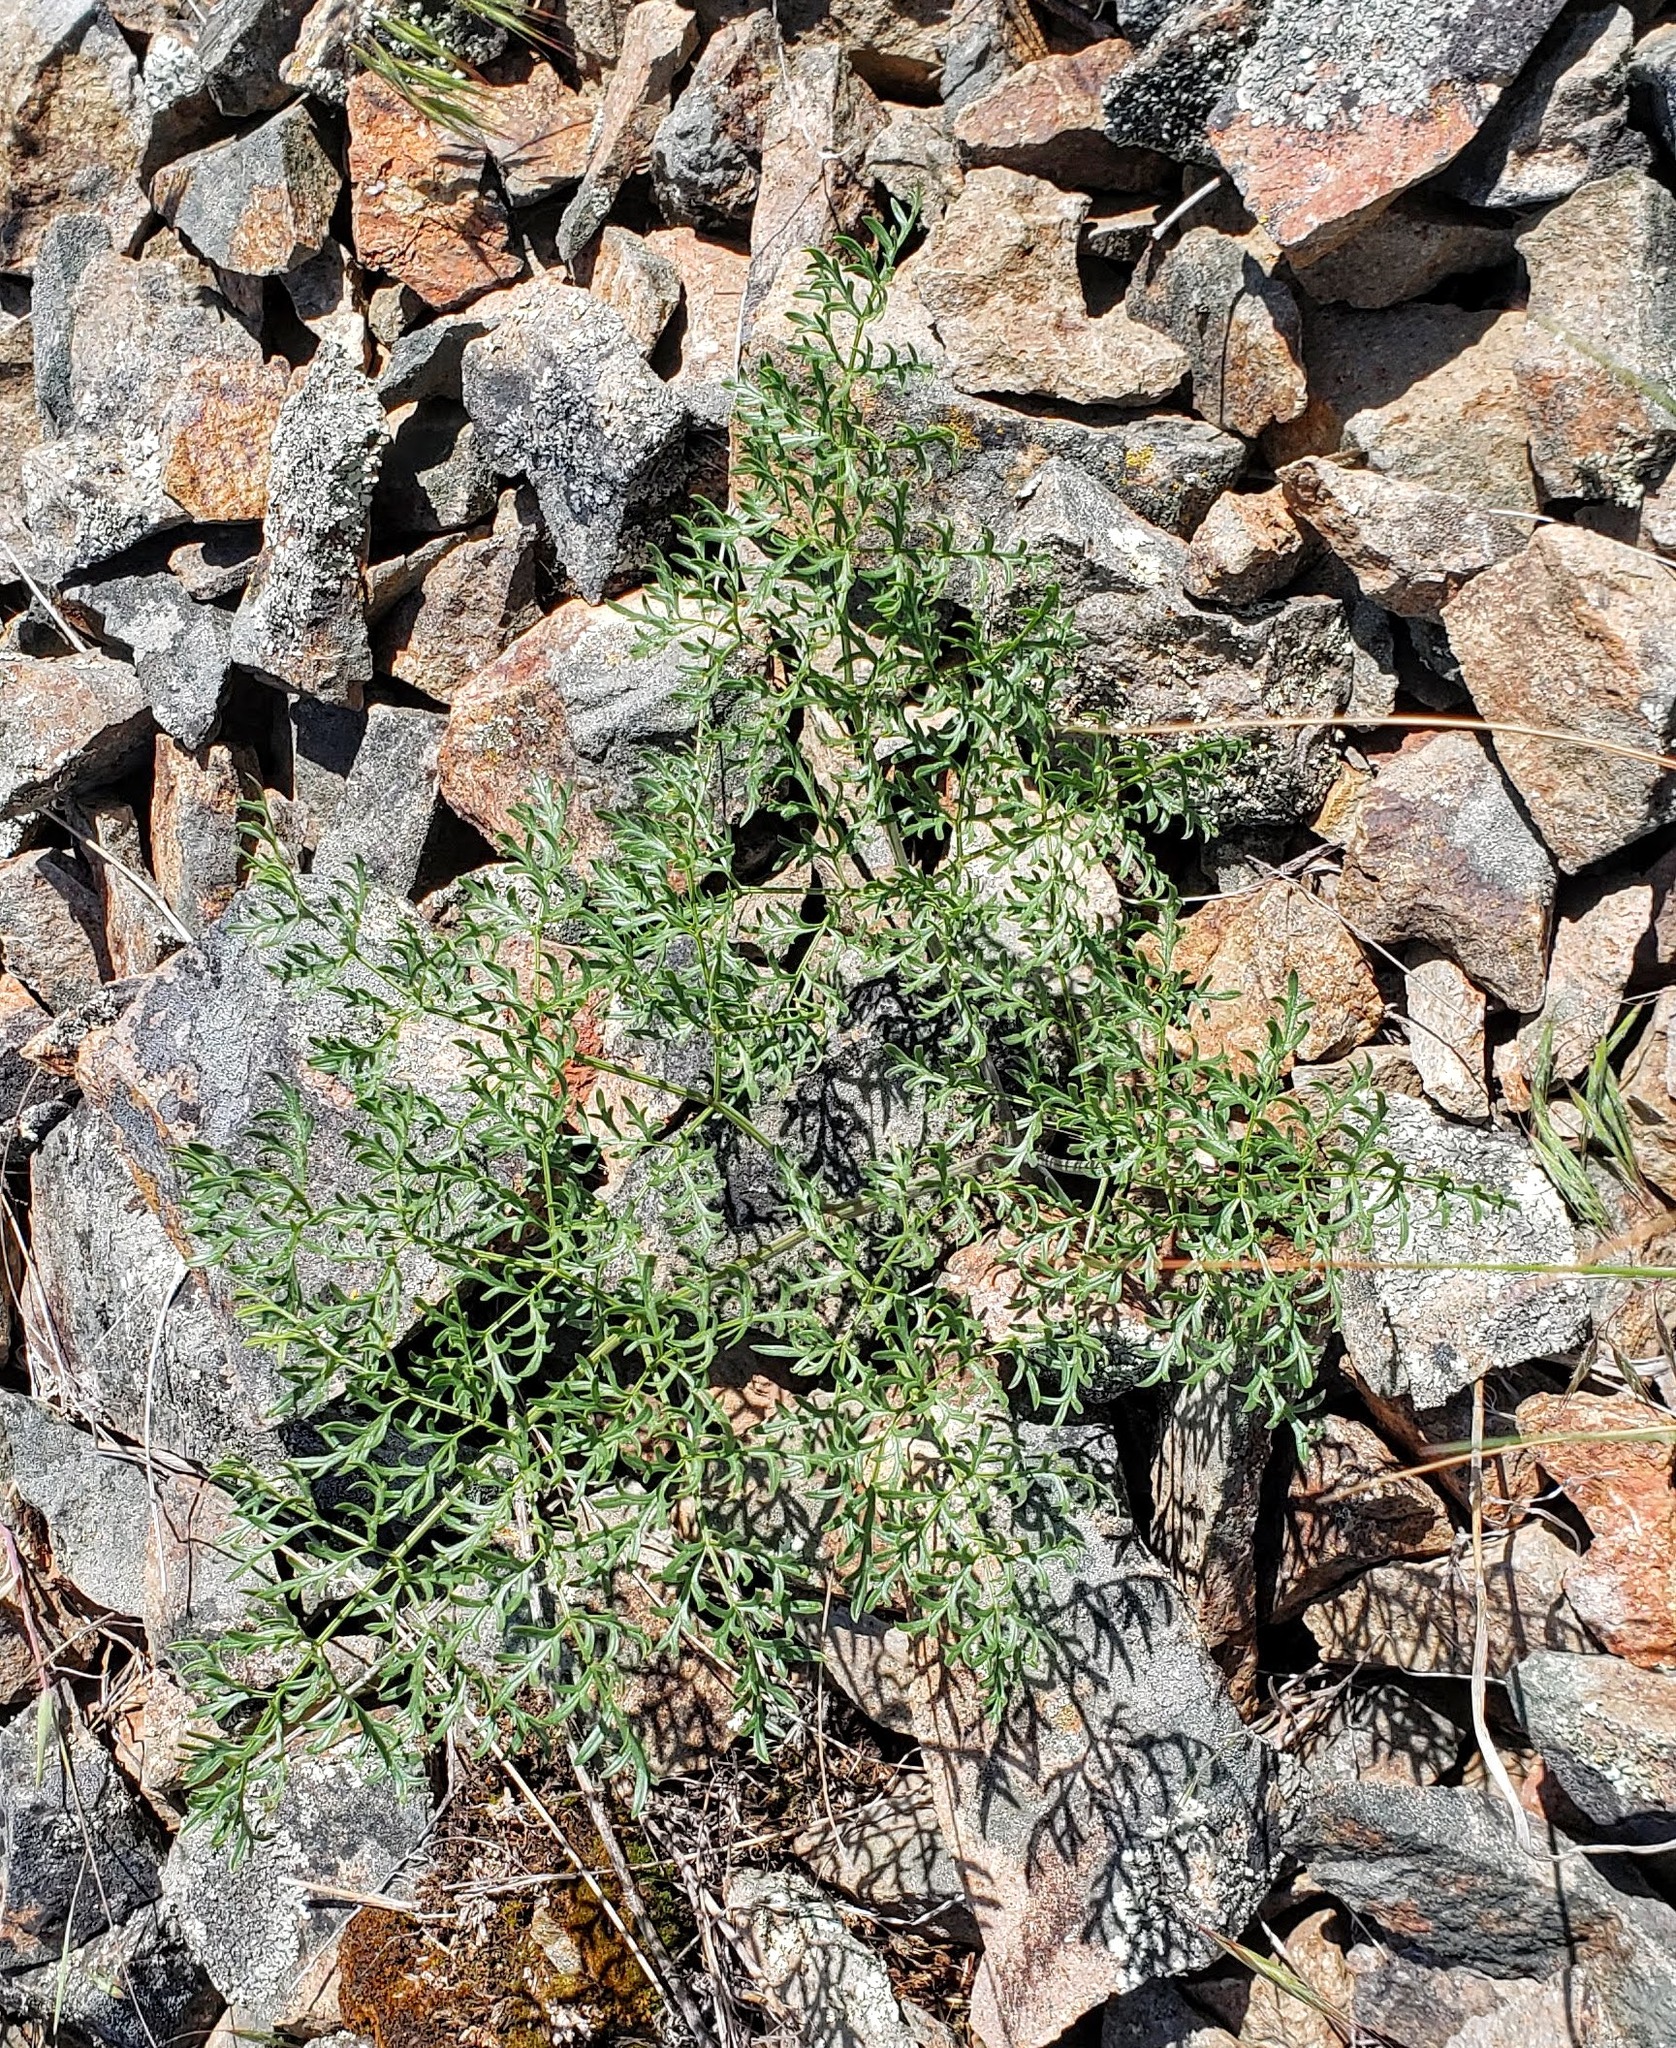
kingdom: Plantae
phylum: Tracheophyta
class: Magnoliopsida
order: Apiales
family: Apiaceae
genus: Lomatium
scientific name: Lomatium multifidum
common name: Carrot-leaved biscuitroot
